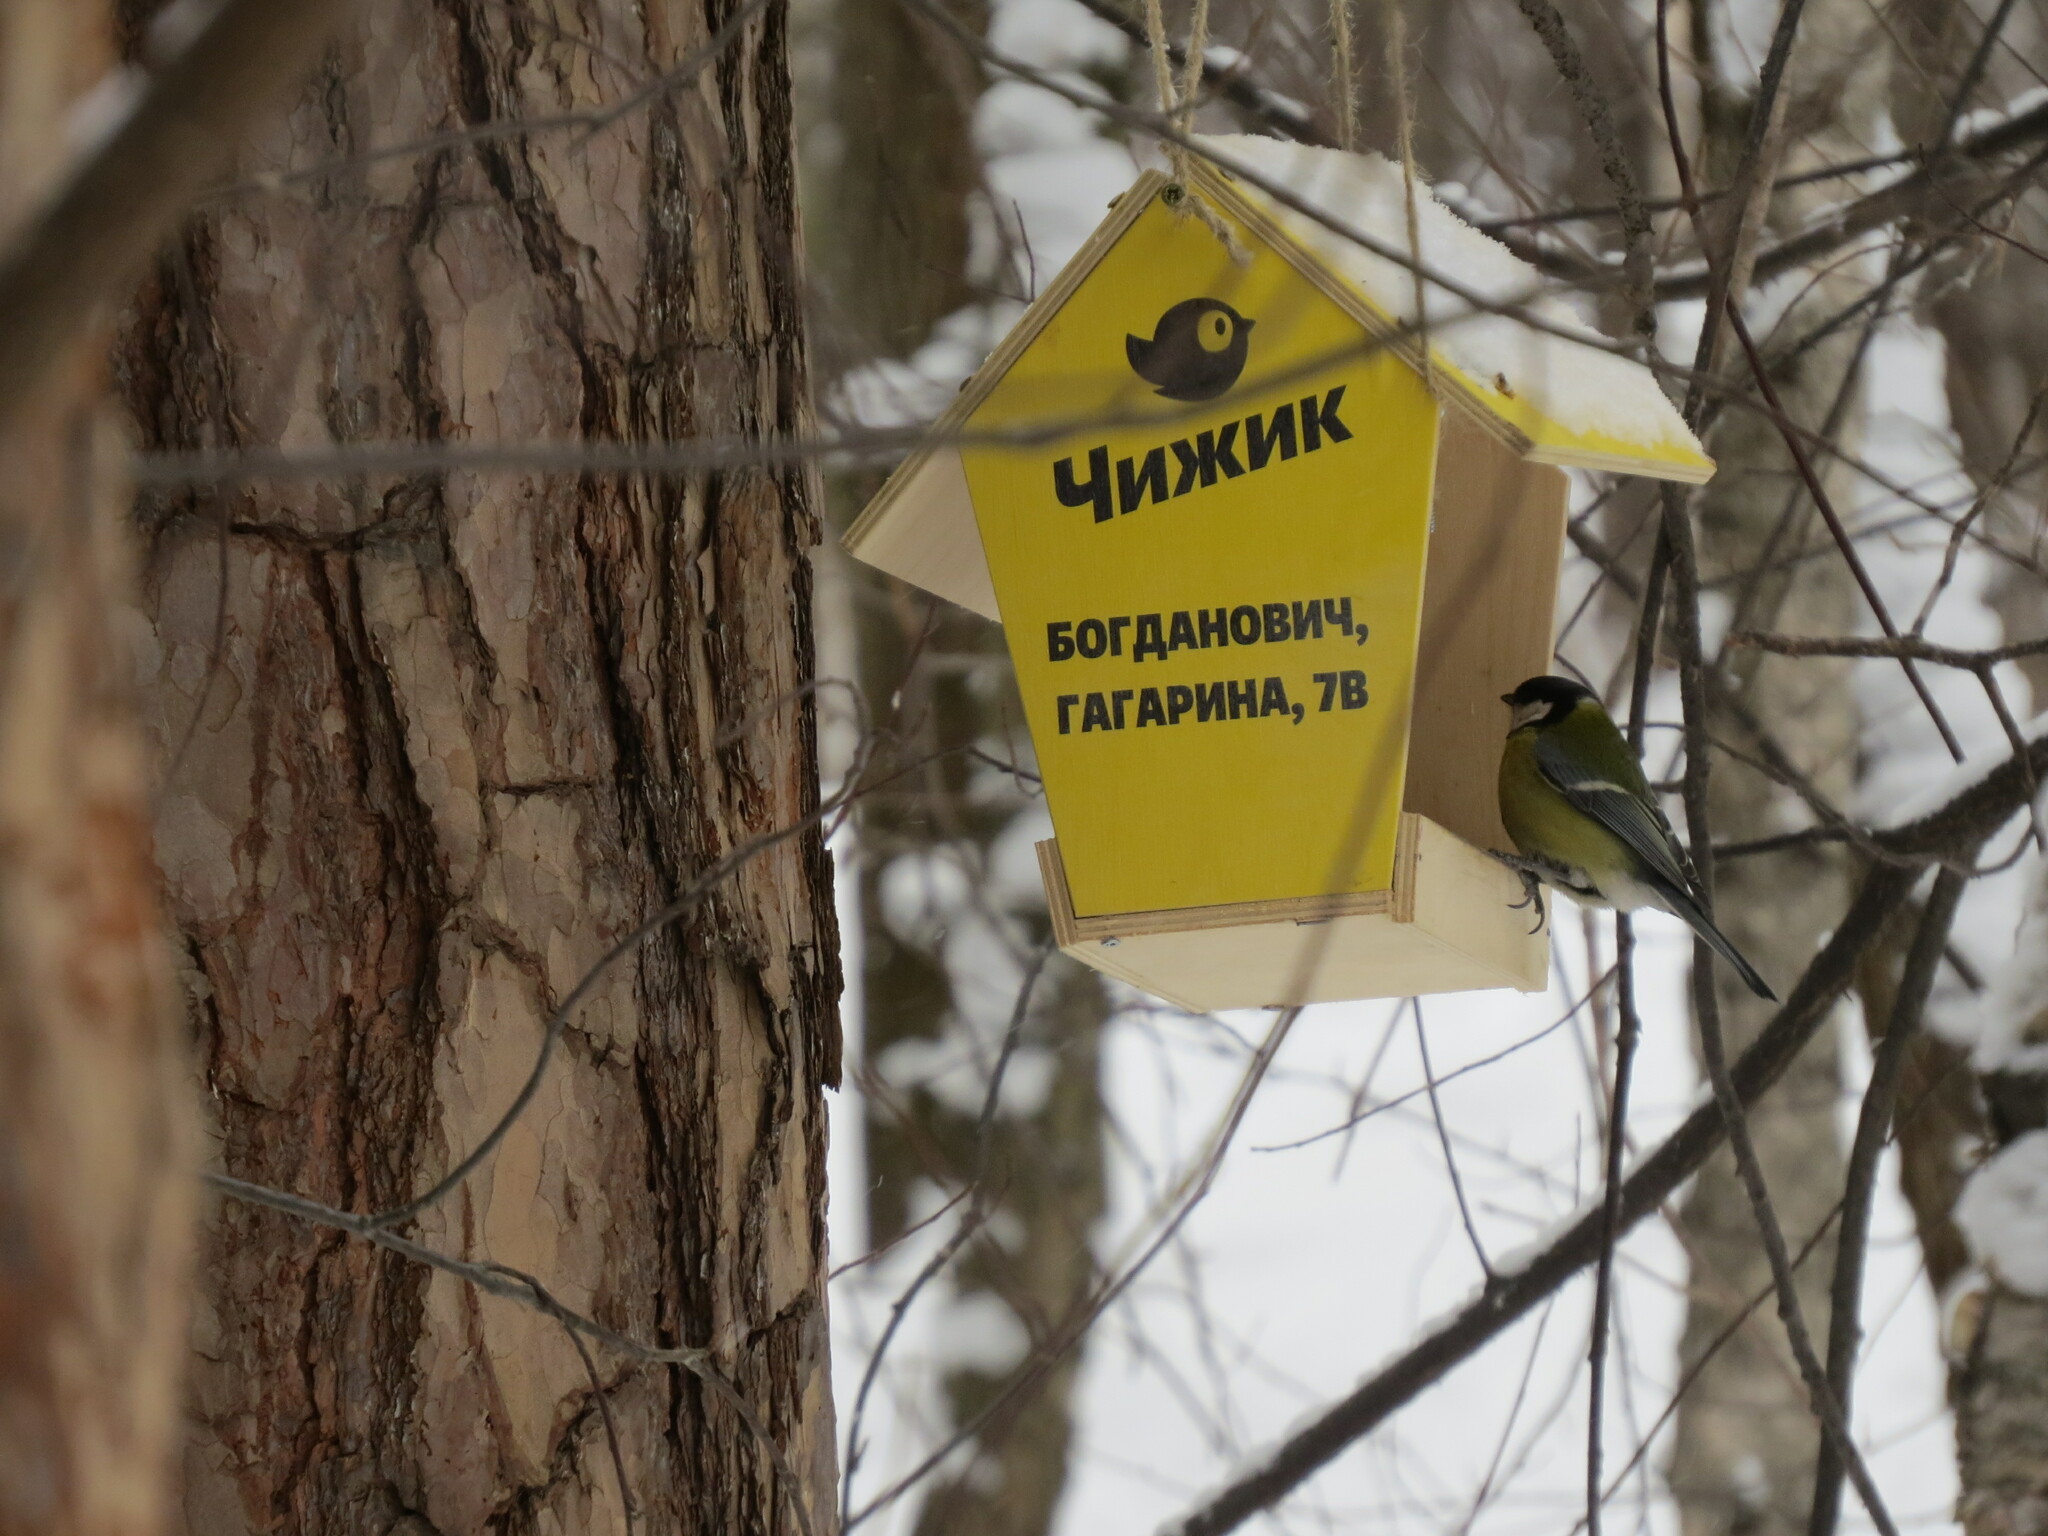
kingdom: Animalia
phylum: Chordata
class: Aves
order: Passeriformes
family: Paridae
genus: Parus
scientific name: Parus major
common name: Great tit
